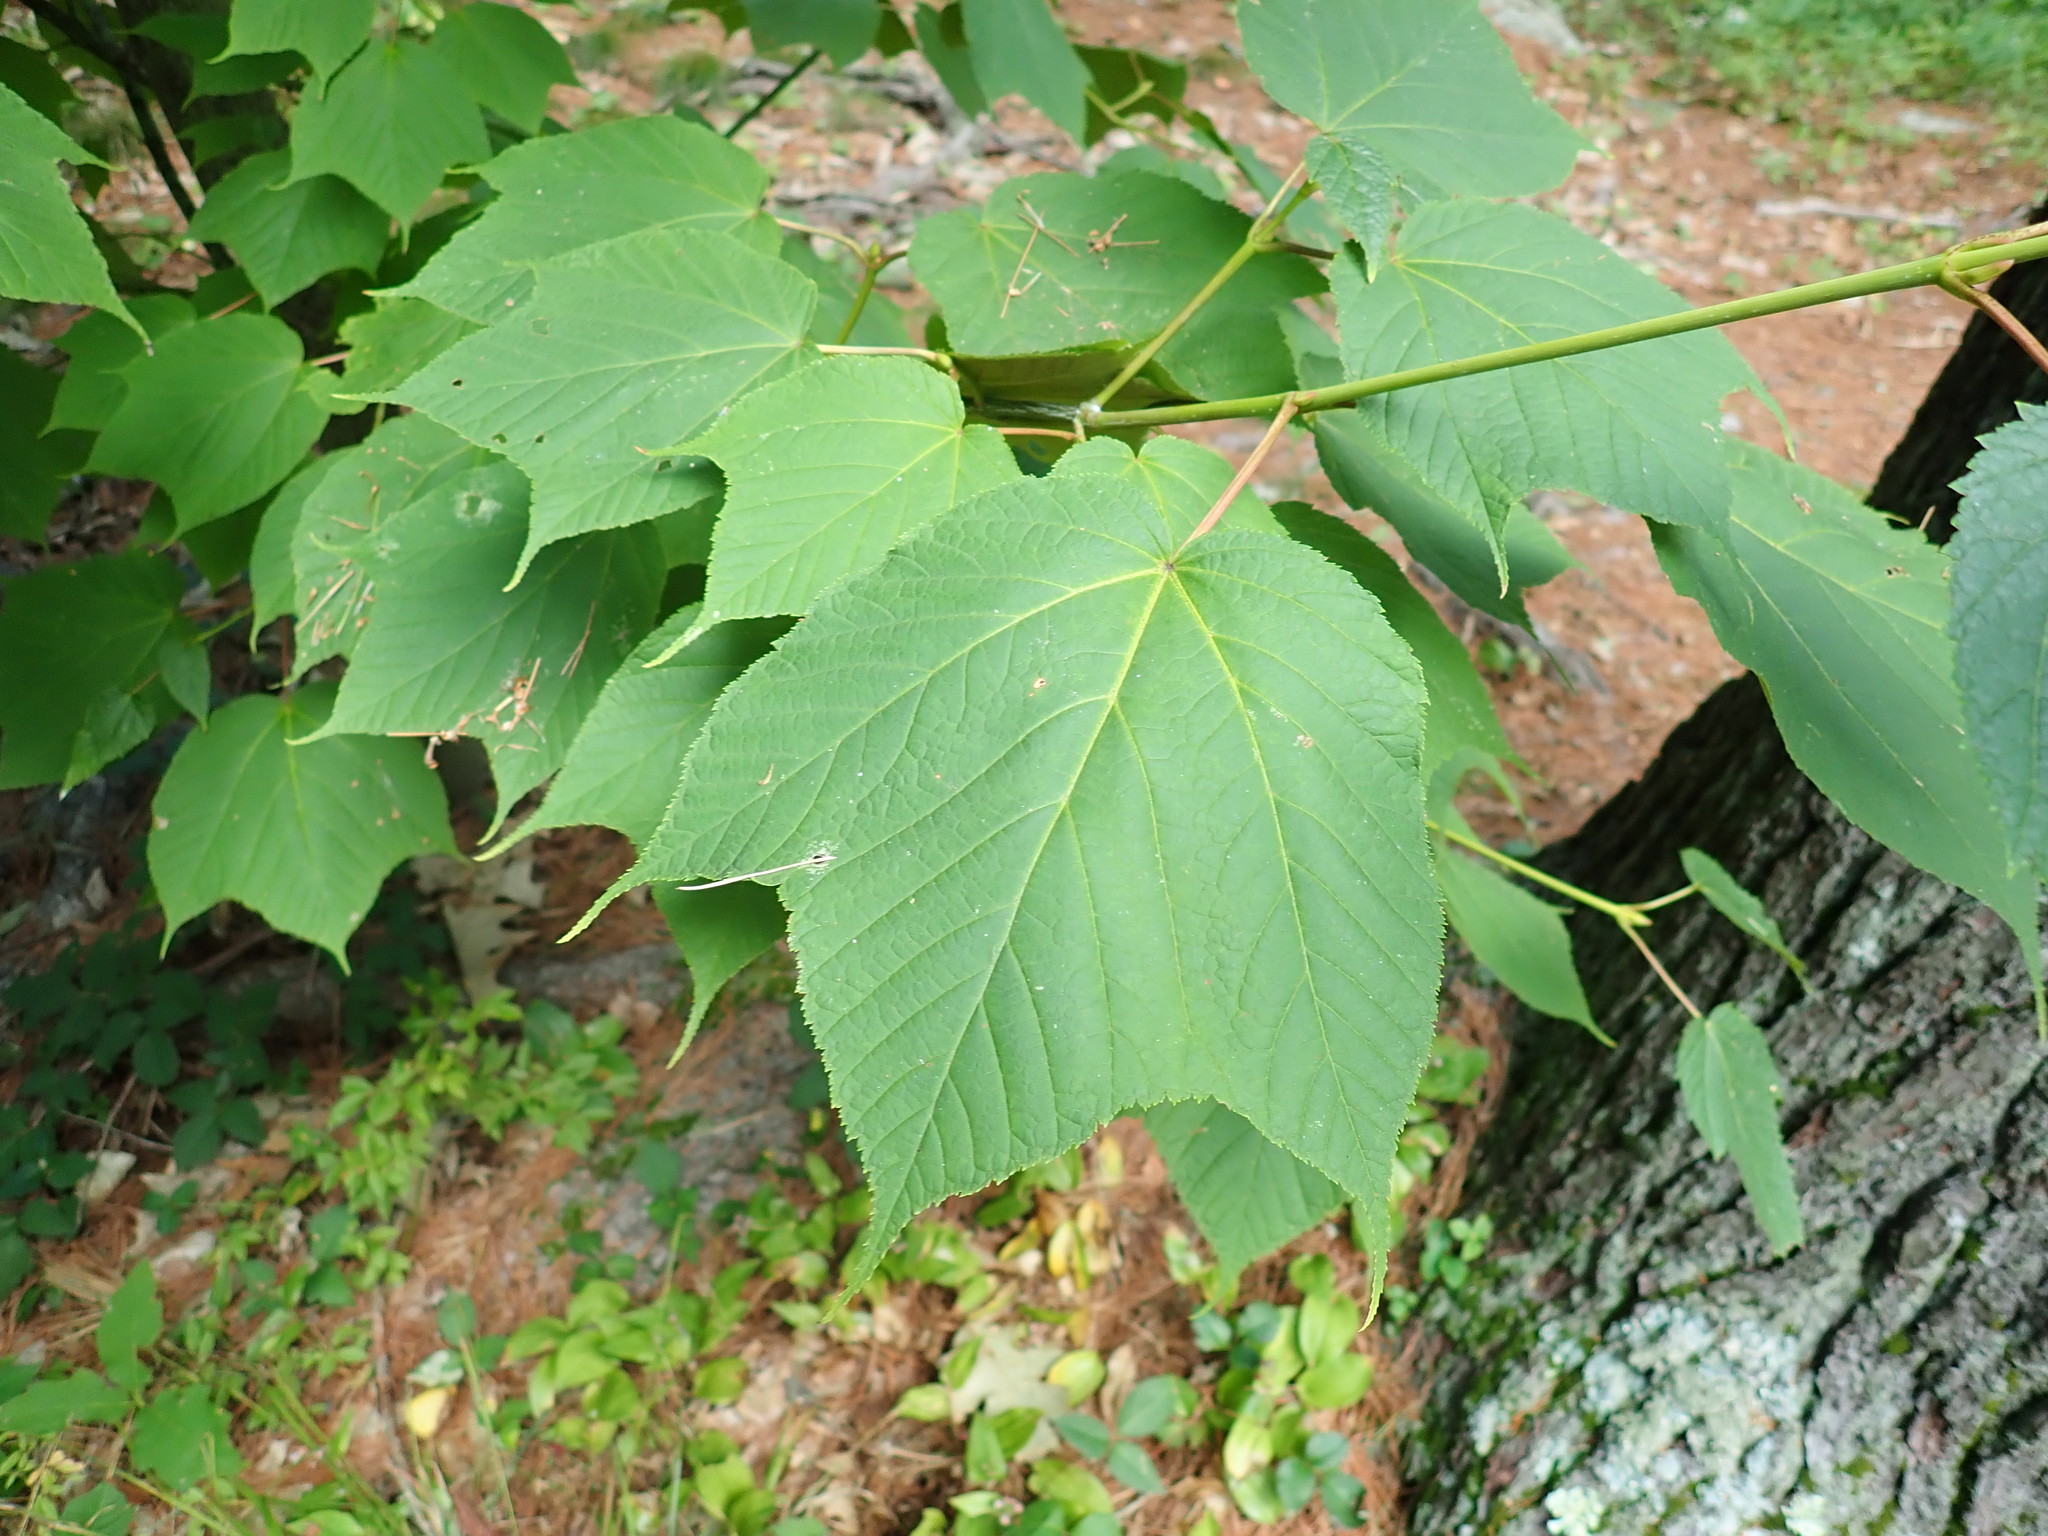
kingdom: Plantae
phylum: Tracheophyta
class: Magnoliopsida
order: Sapindales
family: Sapindaceae
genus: Acer
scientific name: Acer pensylvanicum
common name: Moosewood
